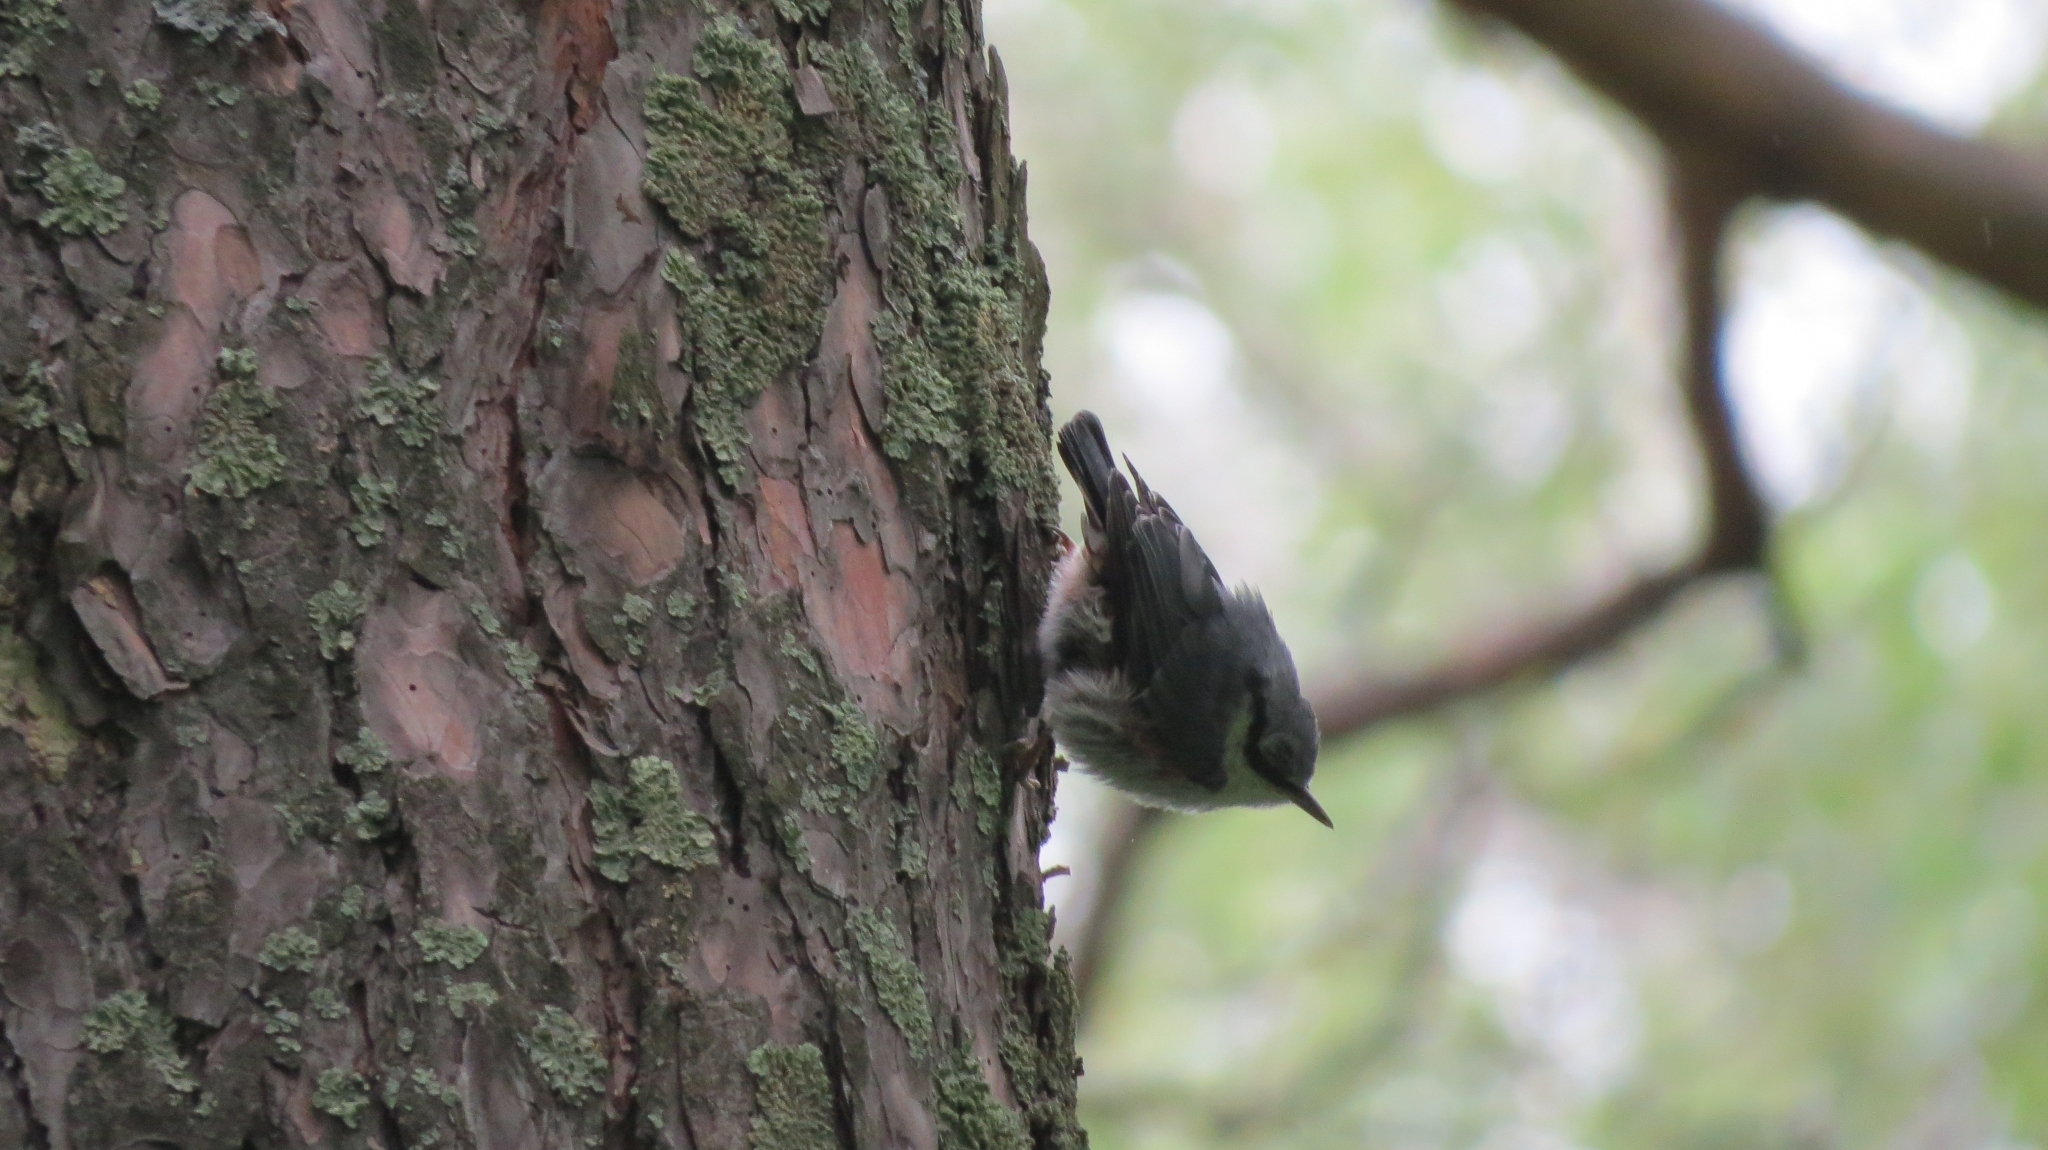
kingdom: Animalia
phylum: Chordata
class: Aves
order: Passeriformes
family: Sittidae
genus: Sitta
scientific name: Sitta europaea
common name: Eurasian nuthatch
